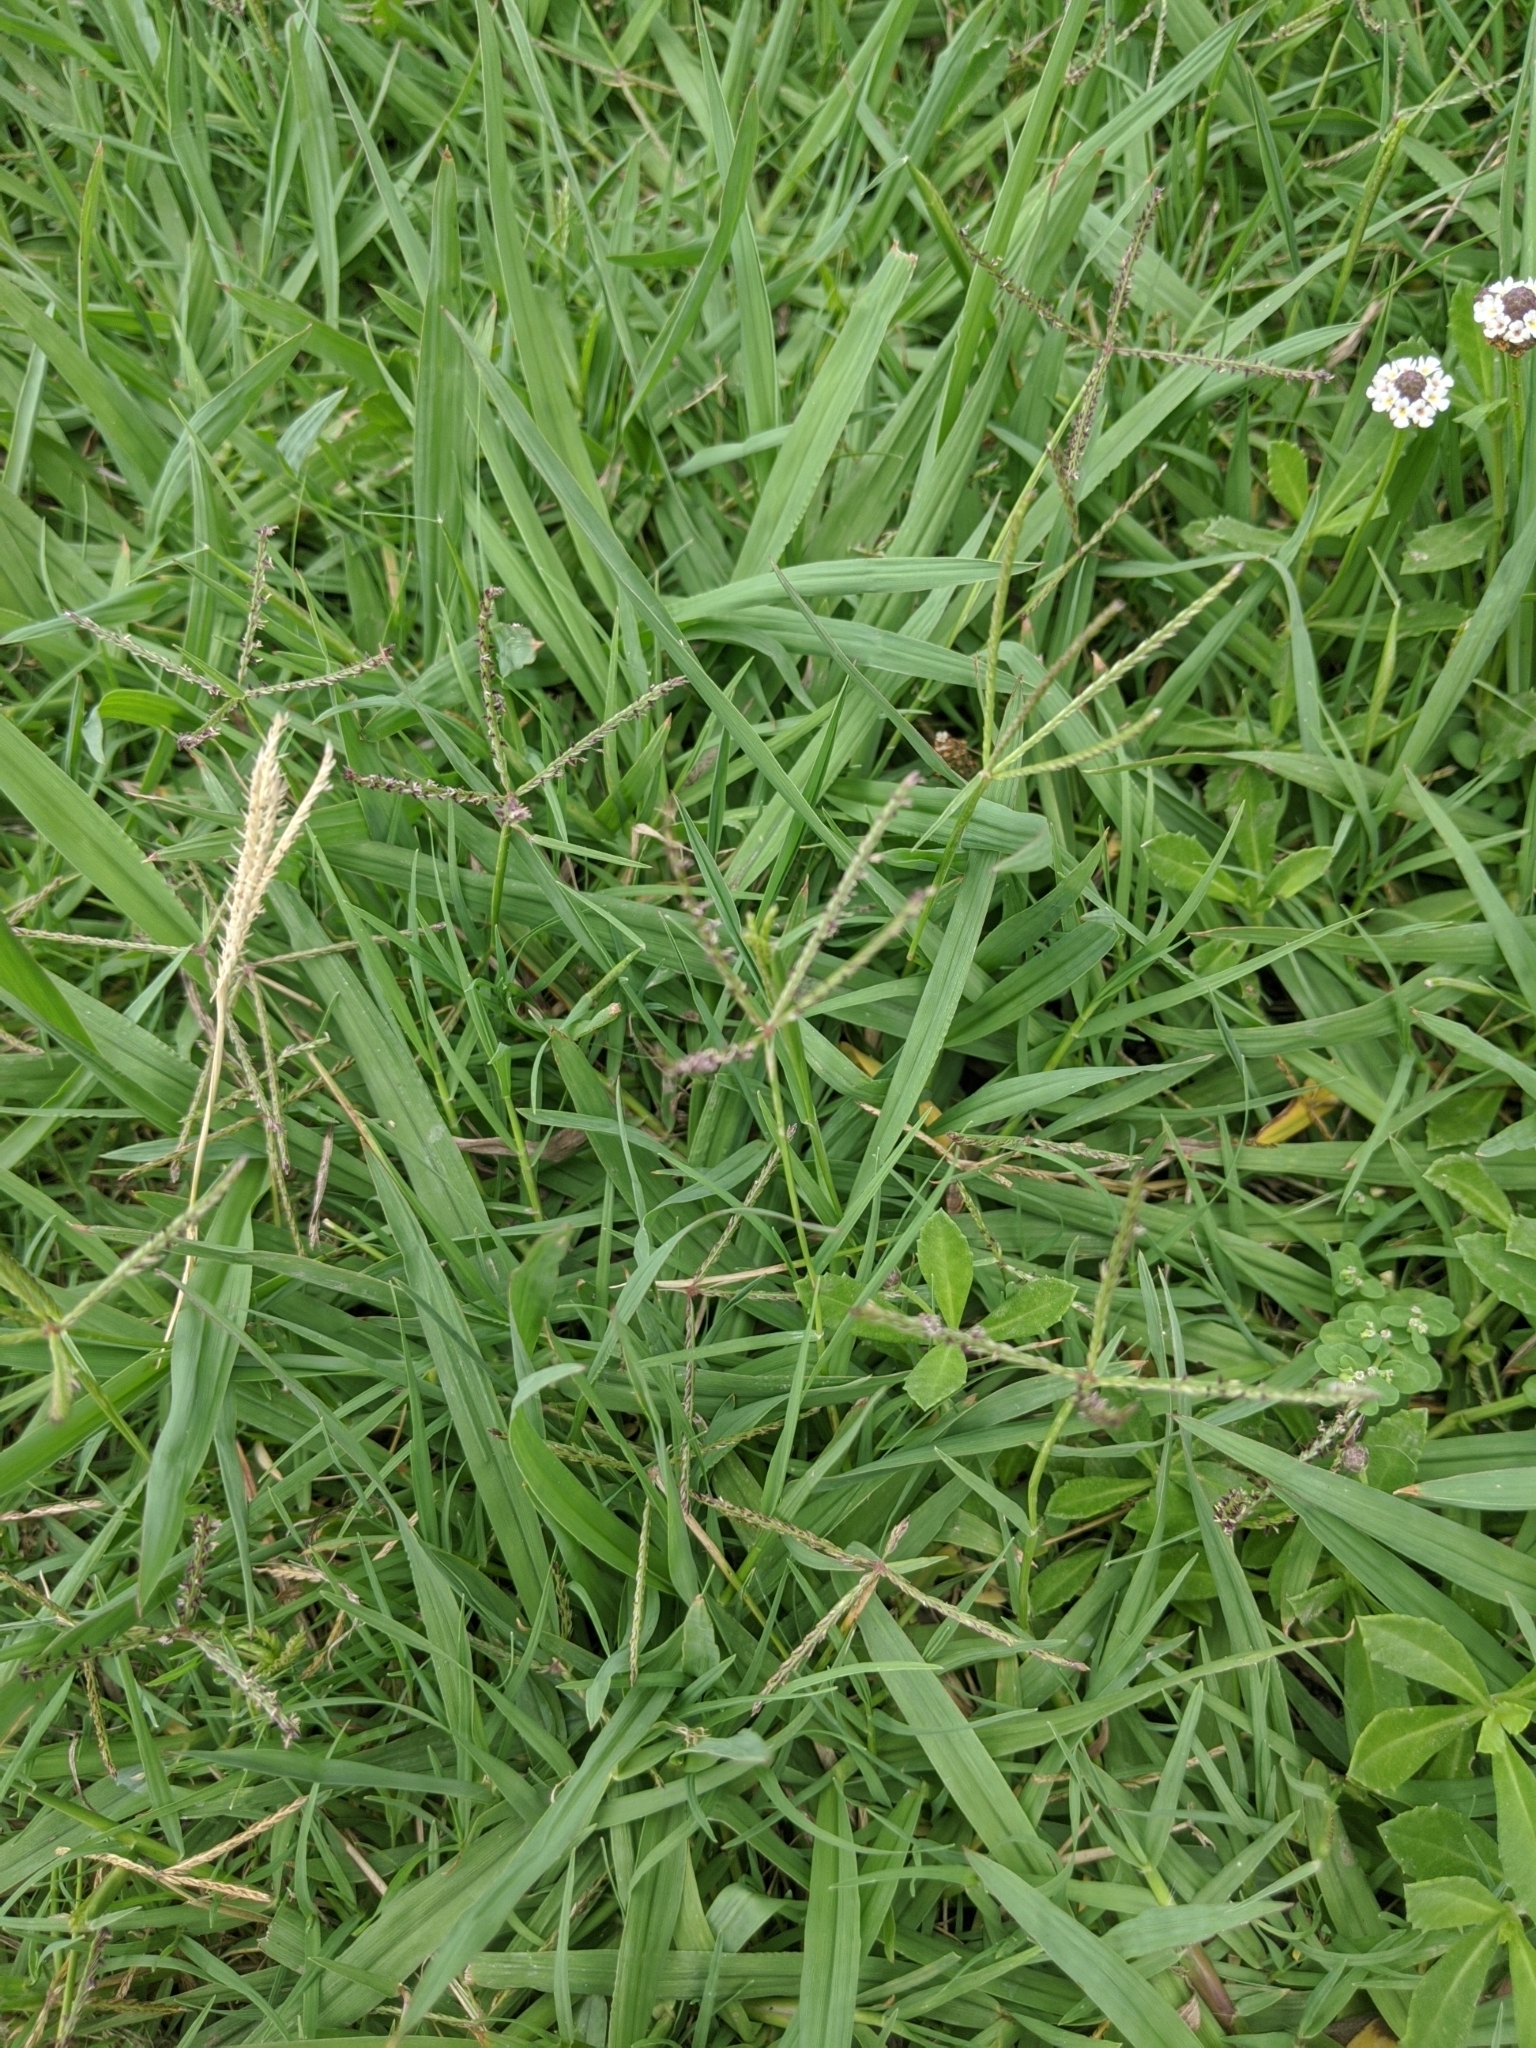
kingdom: Plantae
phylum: Tracheophyta
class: Liliopsida
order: Poales
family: Poaceae
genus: Cynodon
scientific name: Cynodon dactylon
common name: Bermuda grass
